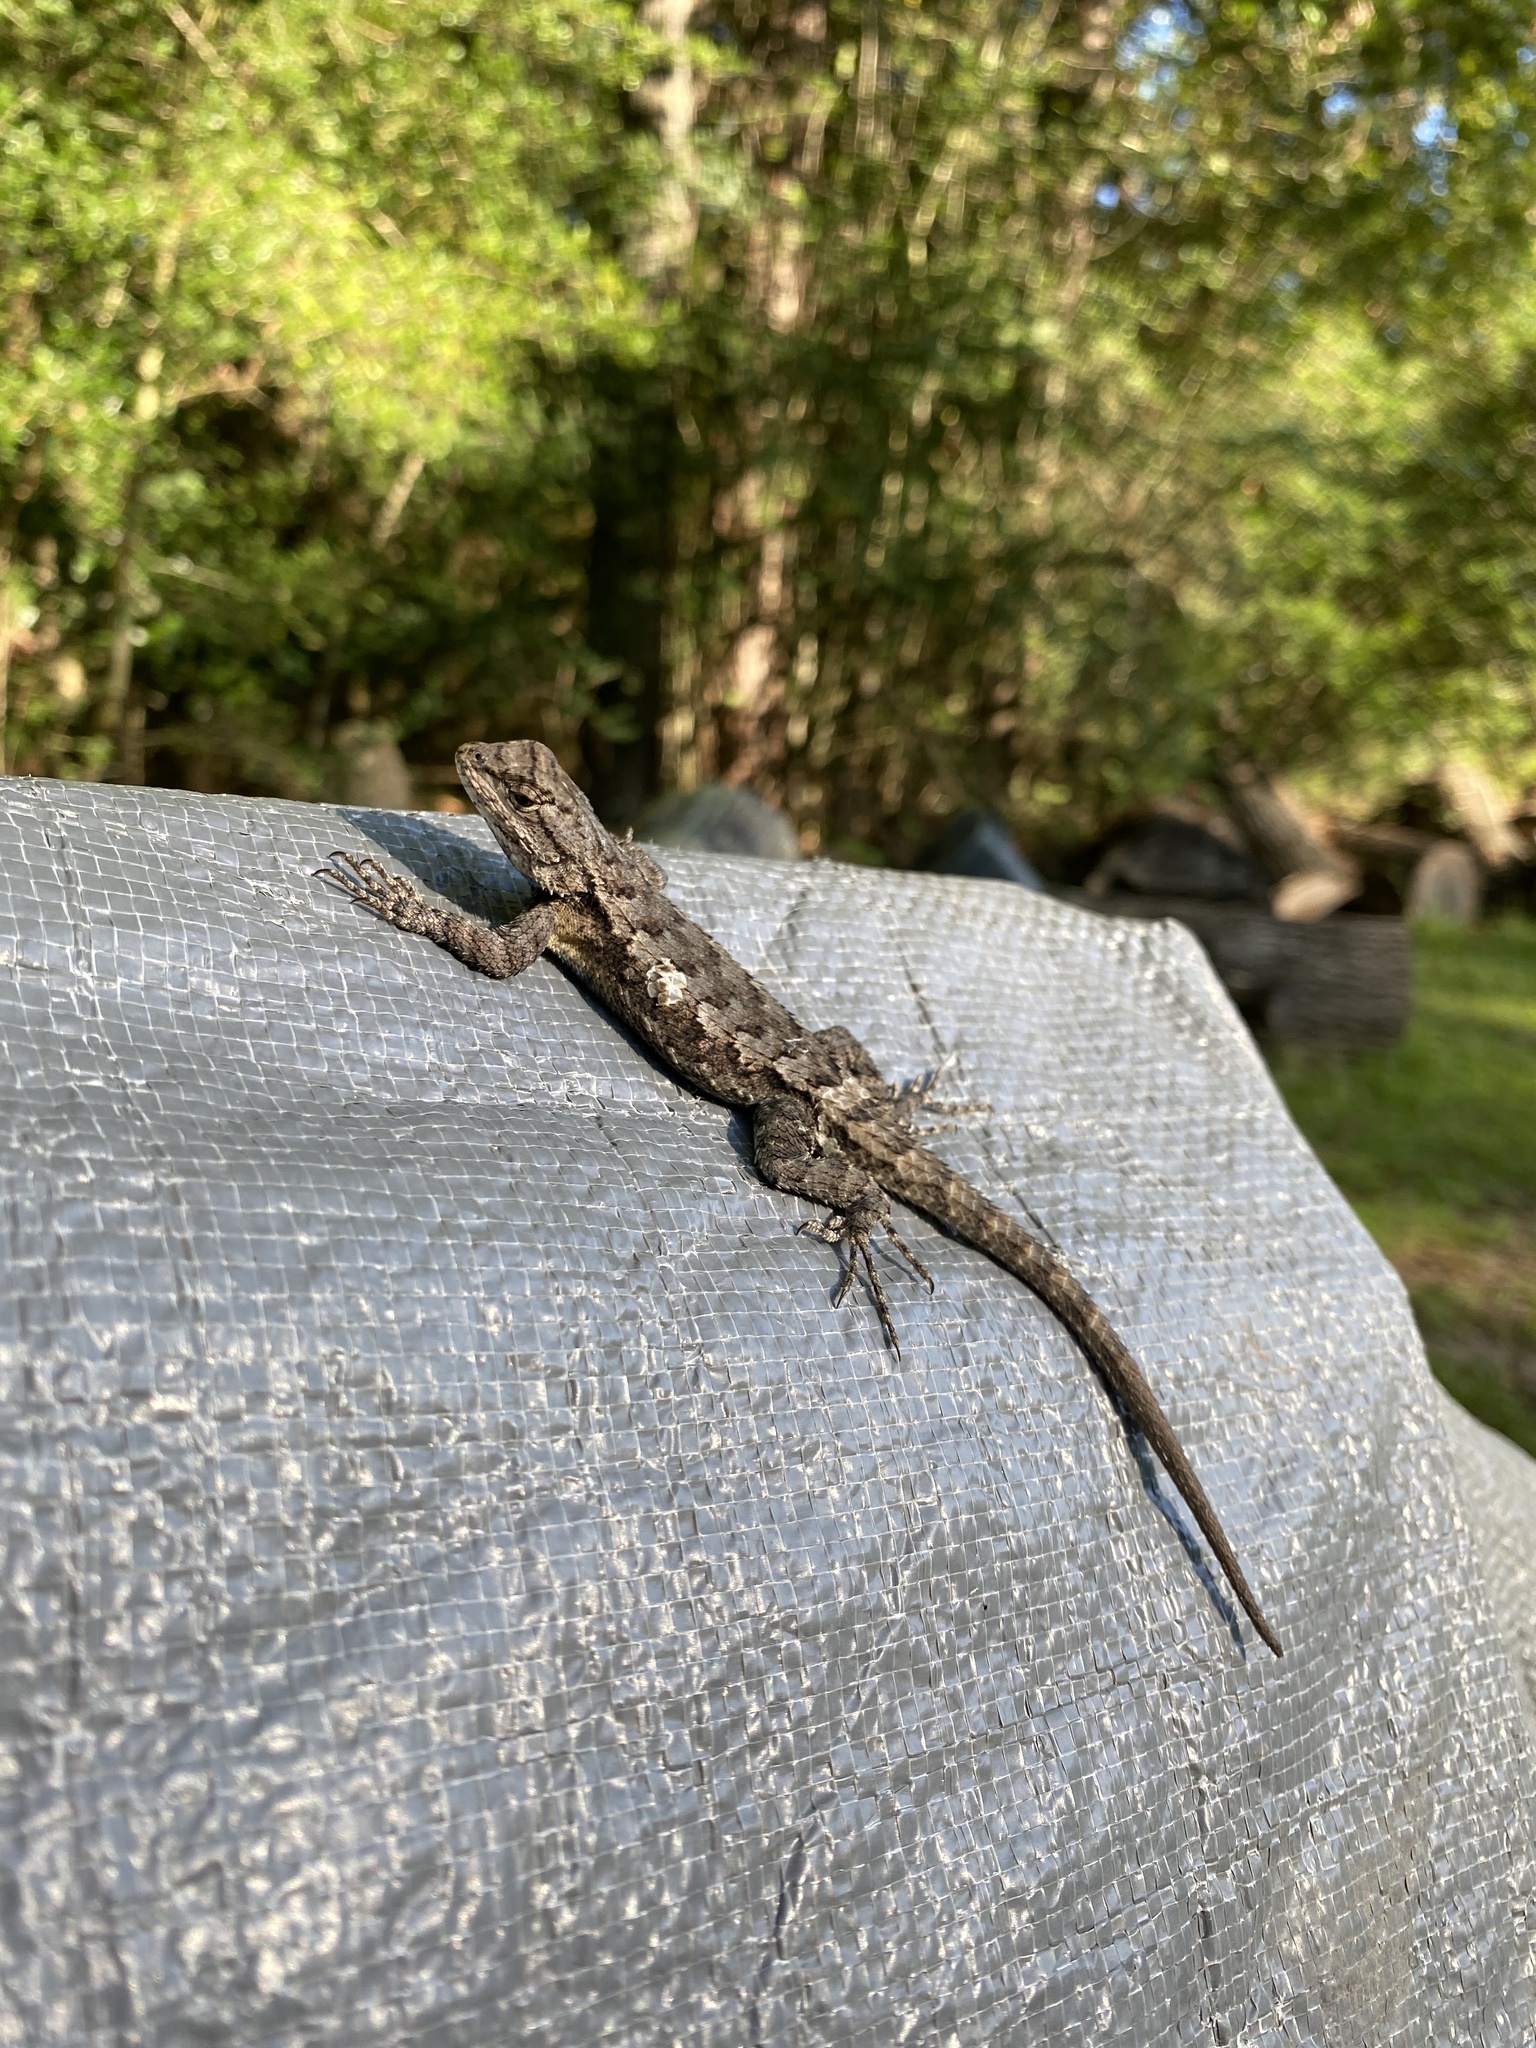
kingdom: Animalia
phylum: Chordata
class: Squamata
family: Phrynosomatidae
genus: Sceloporus
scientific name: Sceloporus consobrinus
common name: Southern prairie lizard
